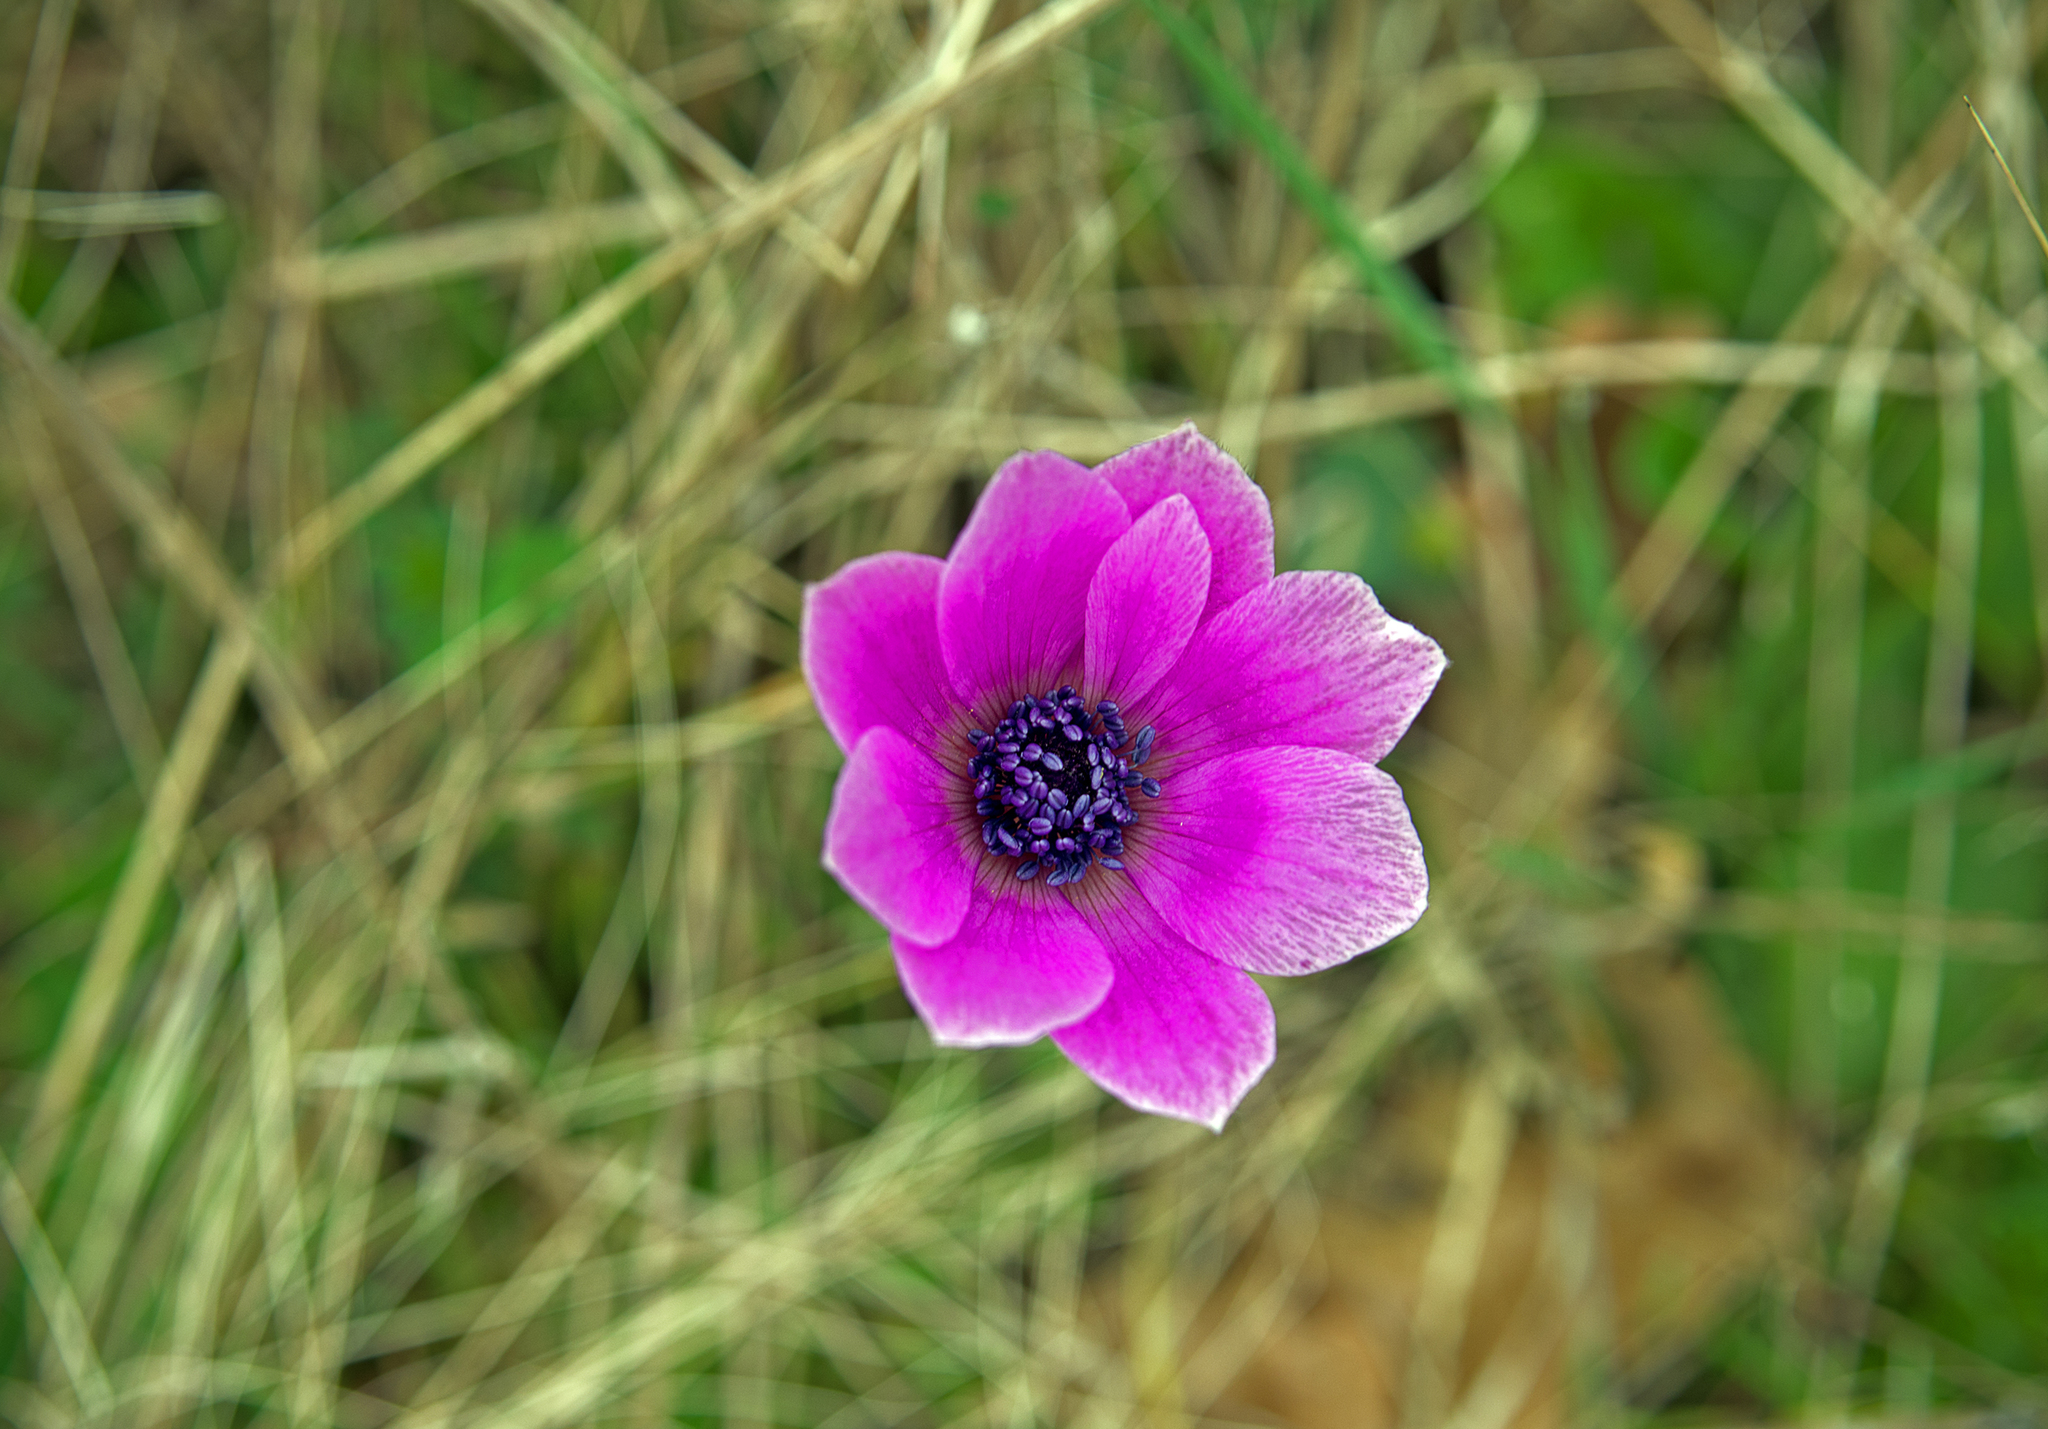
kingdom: Plantae
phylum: Tracheophyta
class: Magnoliopsida
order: Ranunculales
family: Ranunculaceae
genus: Anemone
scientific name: Anemone pavonina
